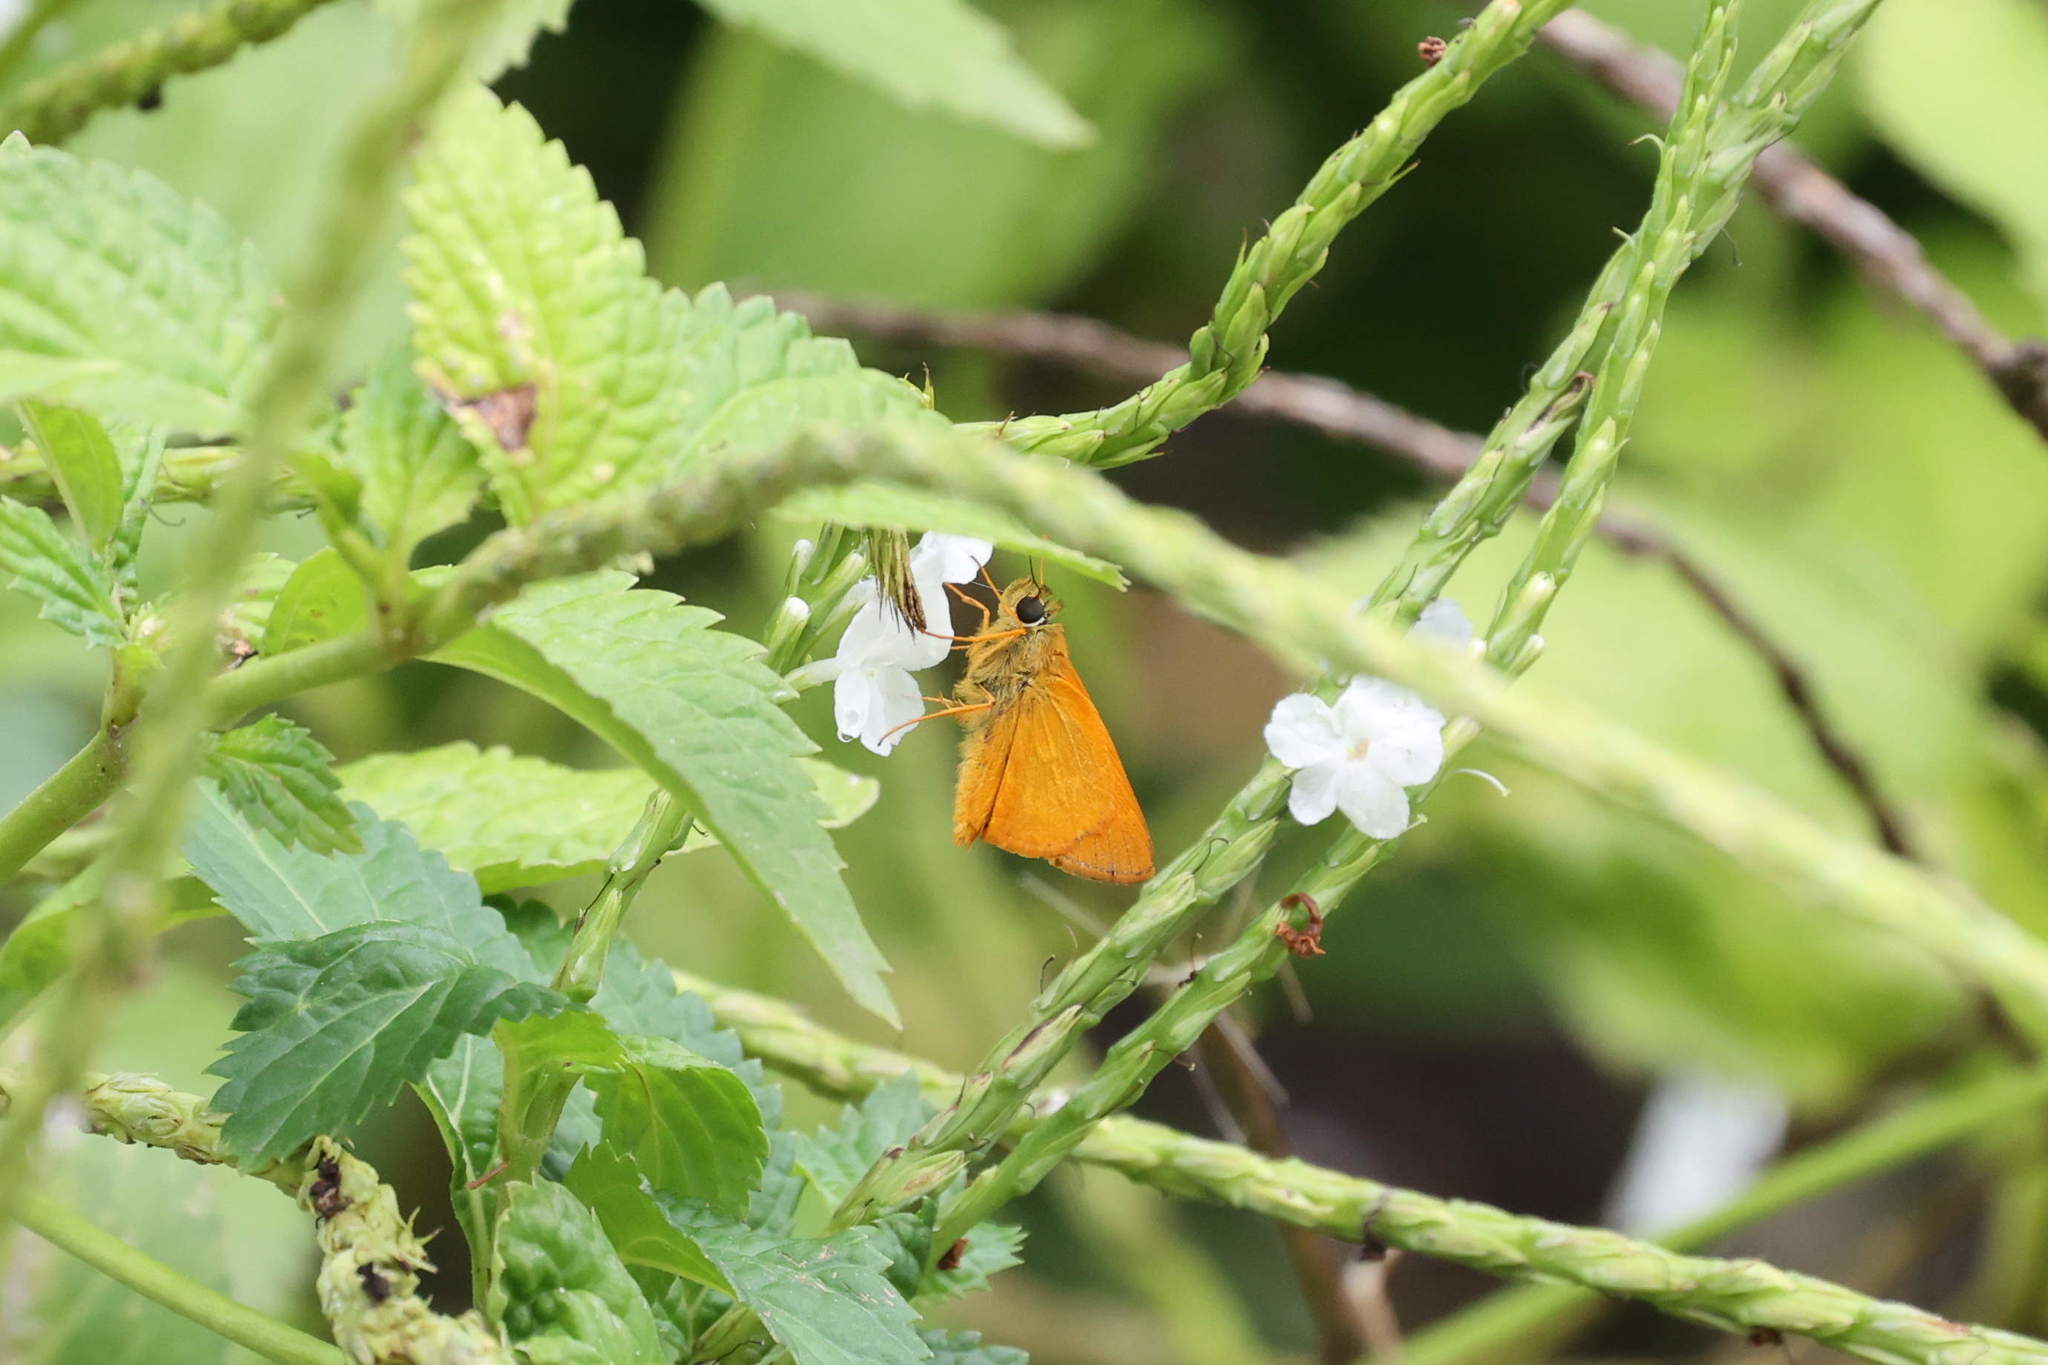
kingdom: Animalia
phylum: Arthropoda
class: Insecta
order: Lepidoptera
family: Hesperiidae
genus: Polites
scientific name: Polites
